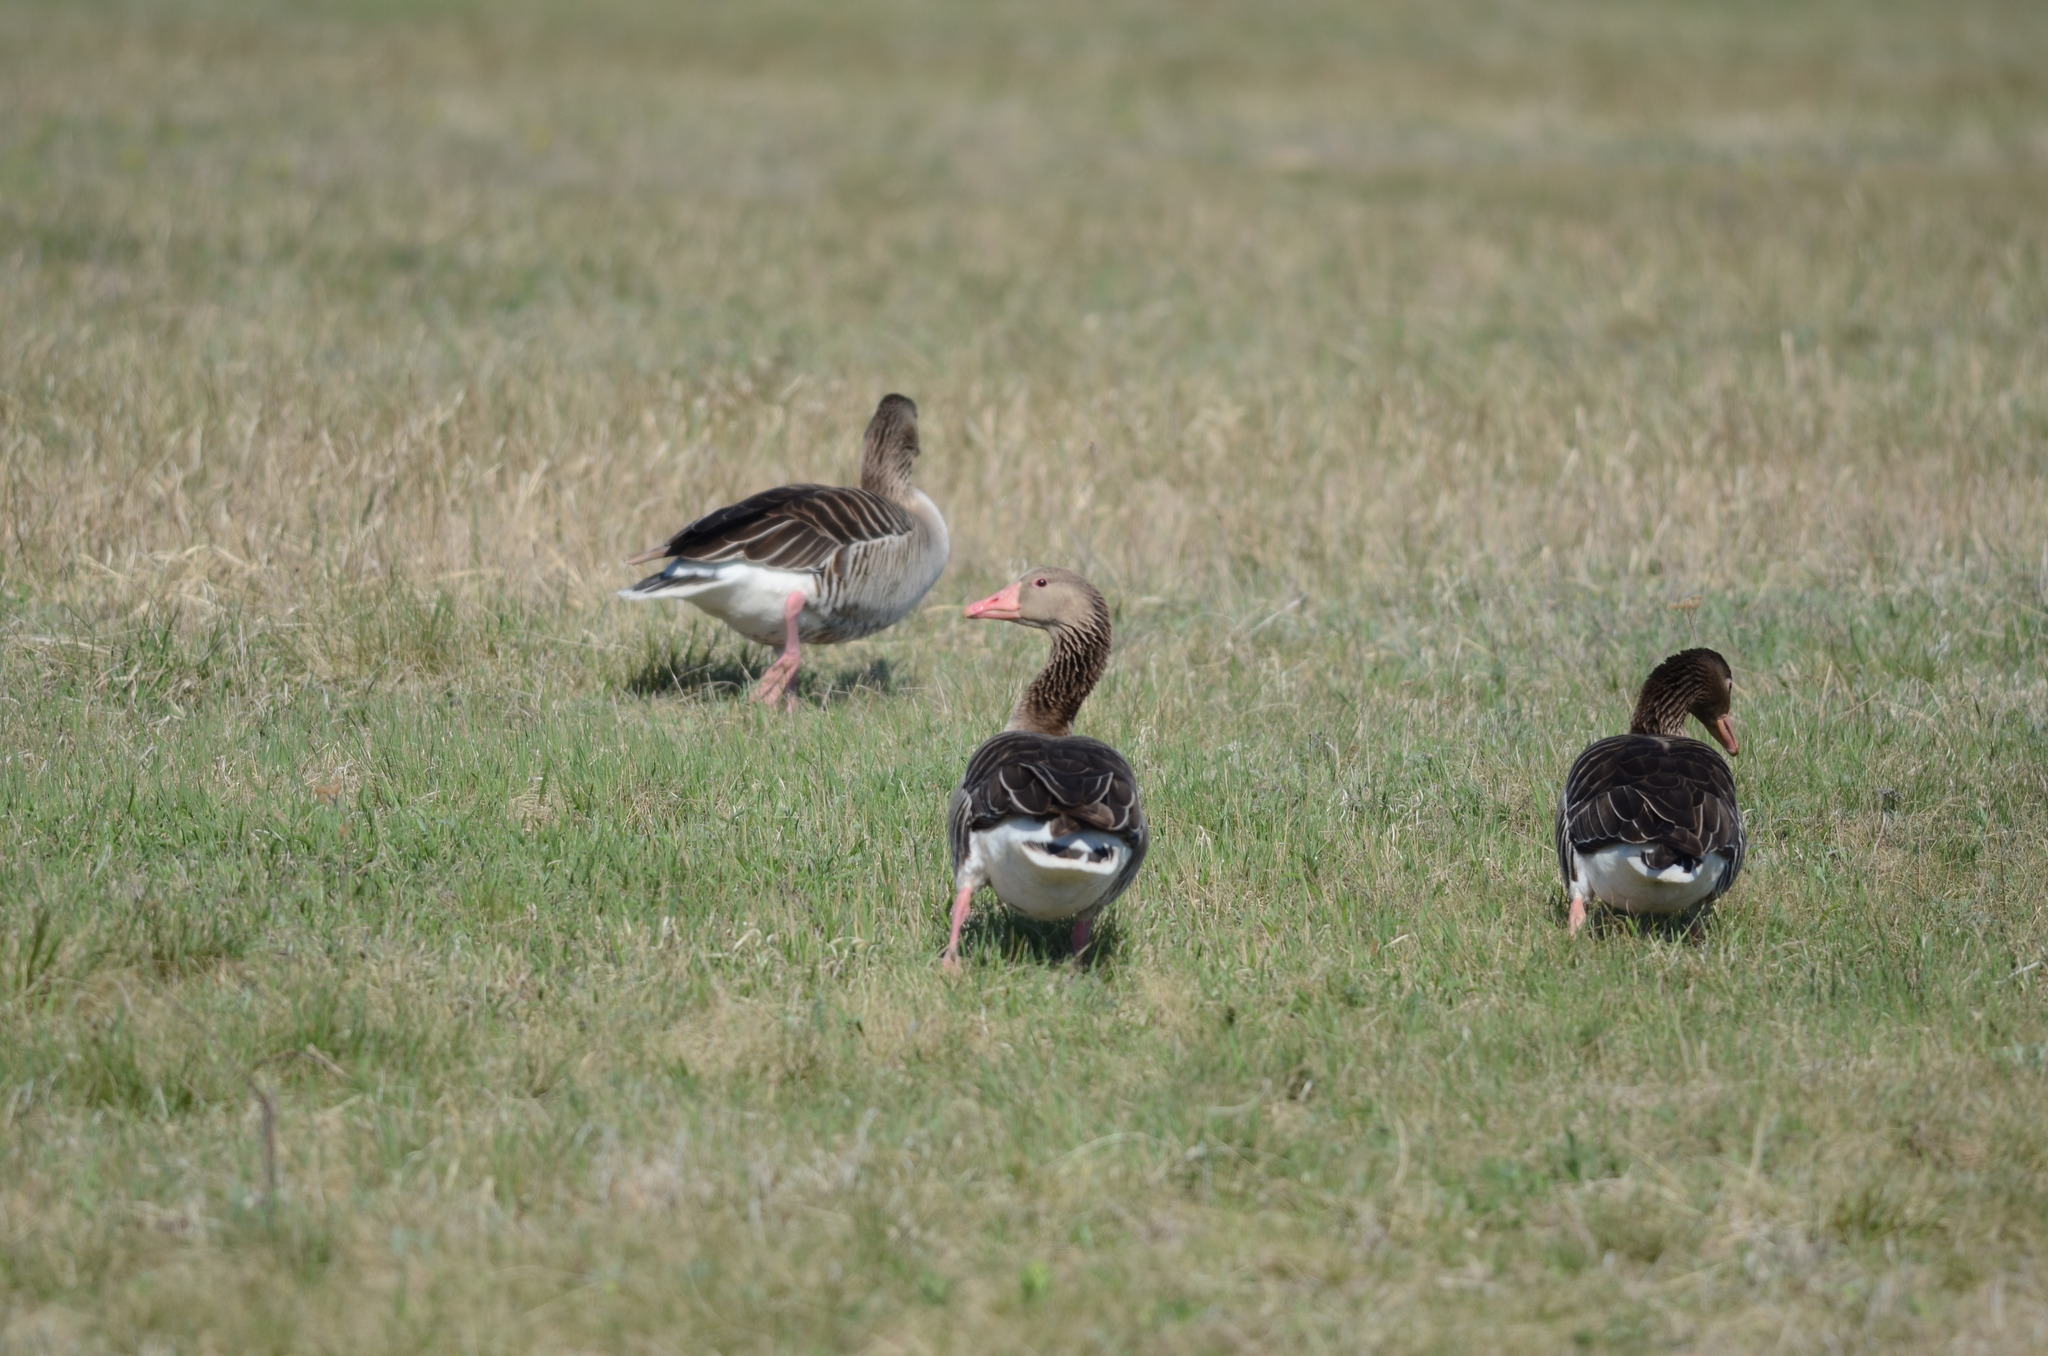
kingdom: Animalia
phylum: Chordata
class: Aves
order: Anseriformes
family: Anatidae
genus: Anser
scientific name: Anser anser
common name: Greylag goose
